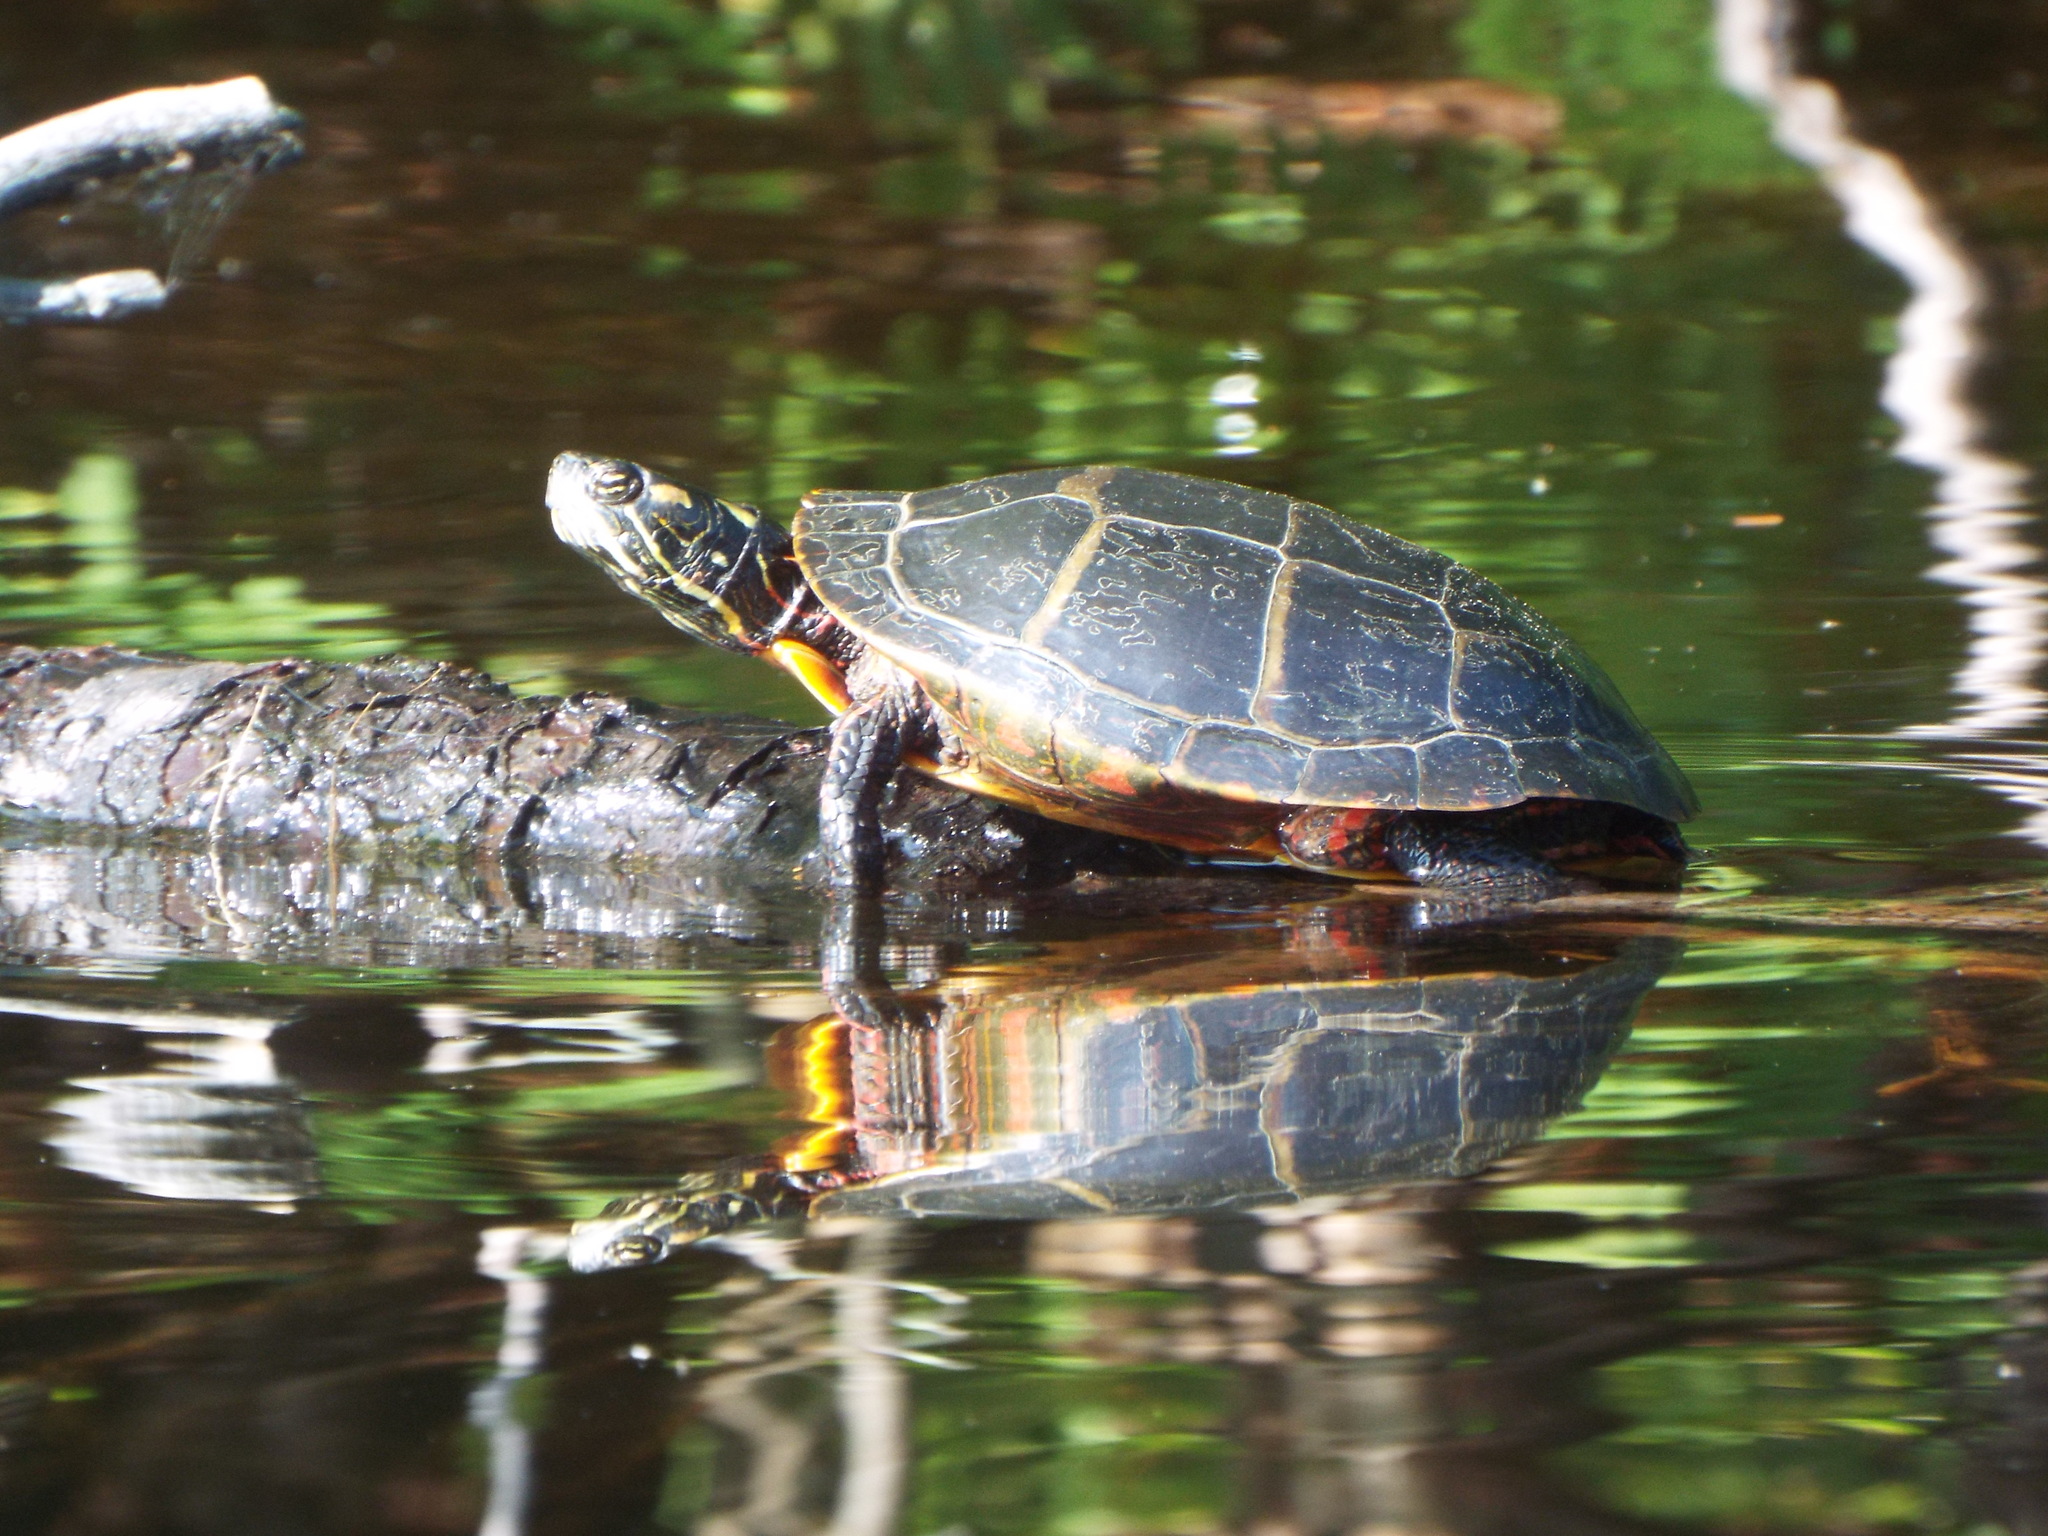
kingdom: Animalia
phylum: Chordata
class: Testudines
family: Emydidae
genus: Chrysemys
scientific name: Chrysemys picta
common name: Painted turtle
